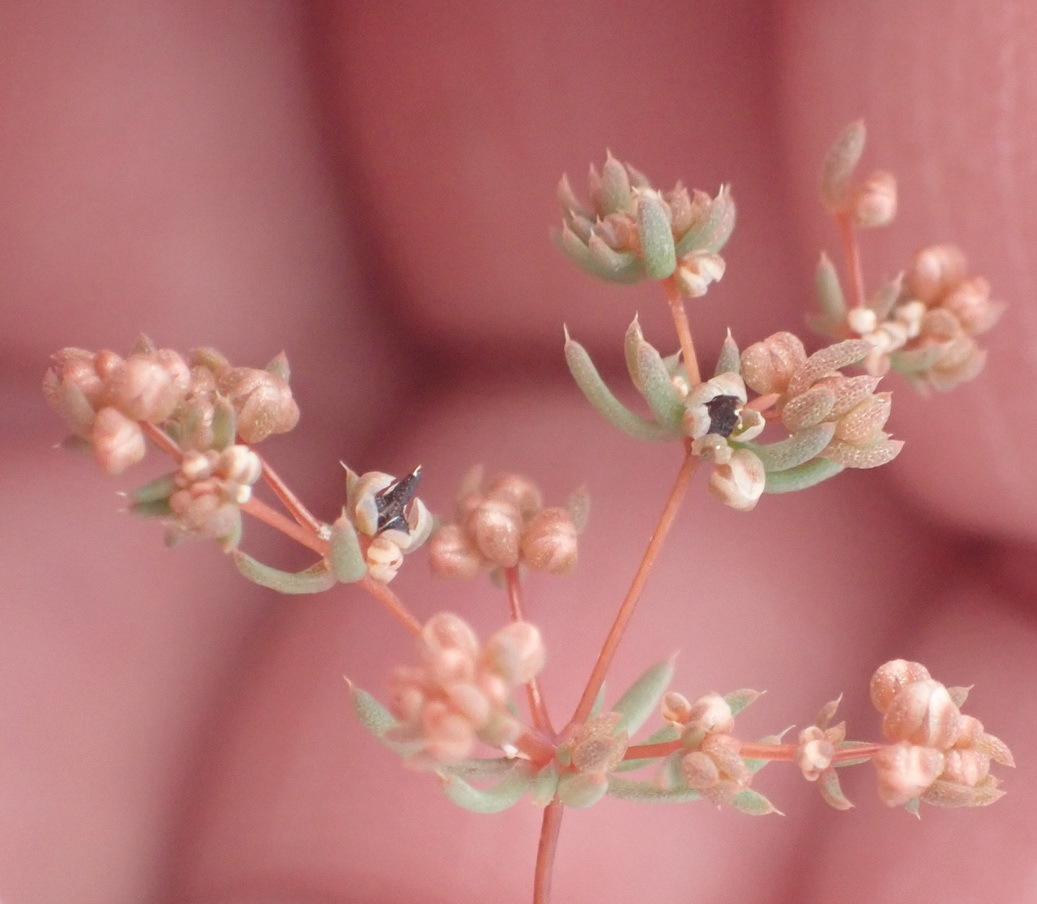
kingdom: Plantae
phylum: Tracheophyta
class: Magnoliopsida
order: Caryophyllales
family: Molluginaceae
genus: Adenogramma
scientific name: Adenogramma mollugo
